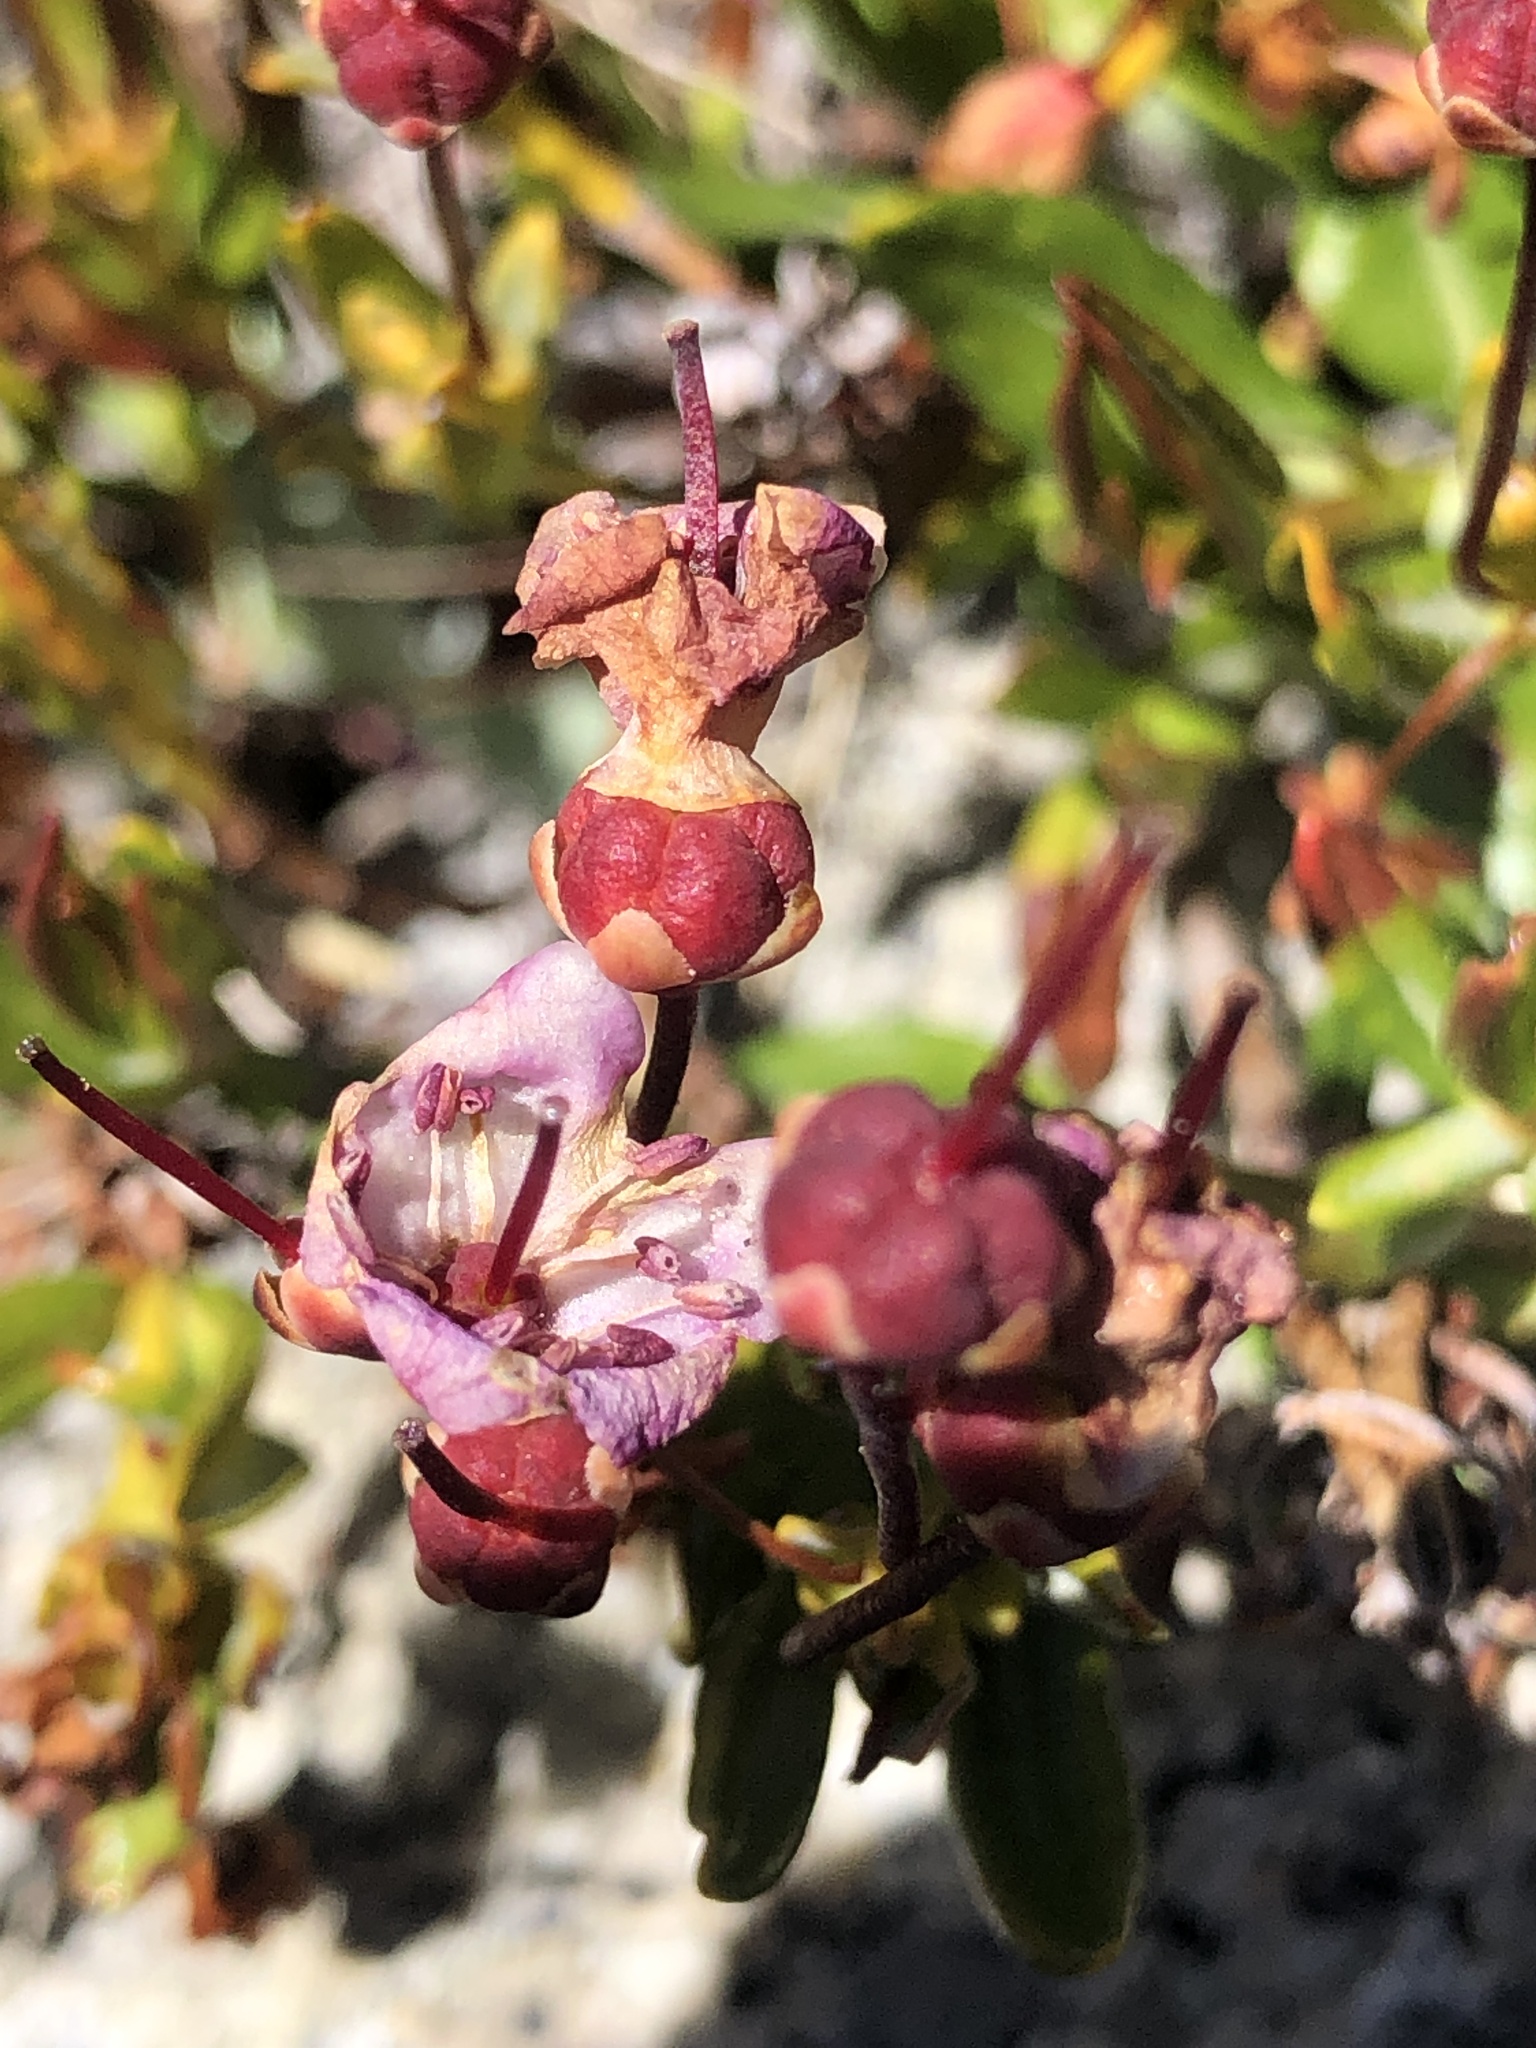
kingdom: Plantae
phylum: Tracheophyta
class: Magnoliopsida
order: Ericales
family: Ericaceae
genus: Kalmia
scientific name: Kalmia microphylla
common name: Alpine bog laurel
